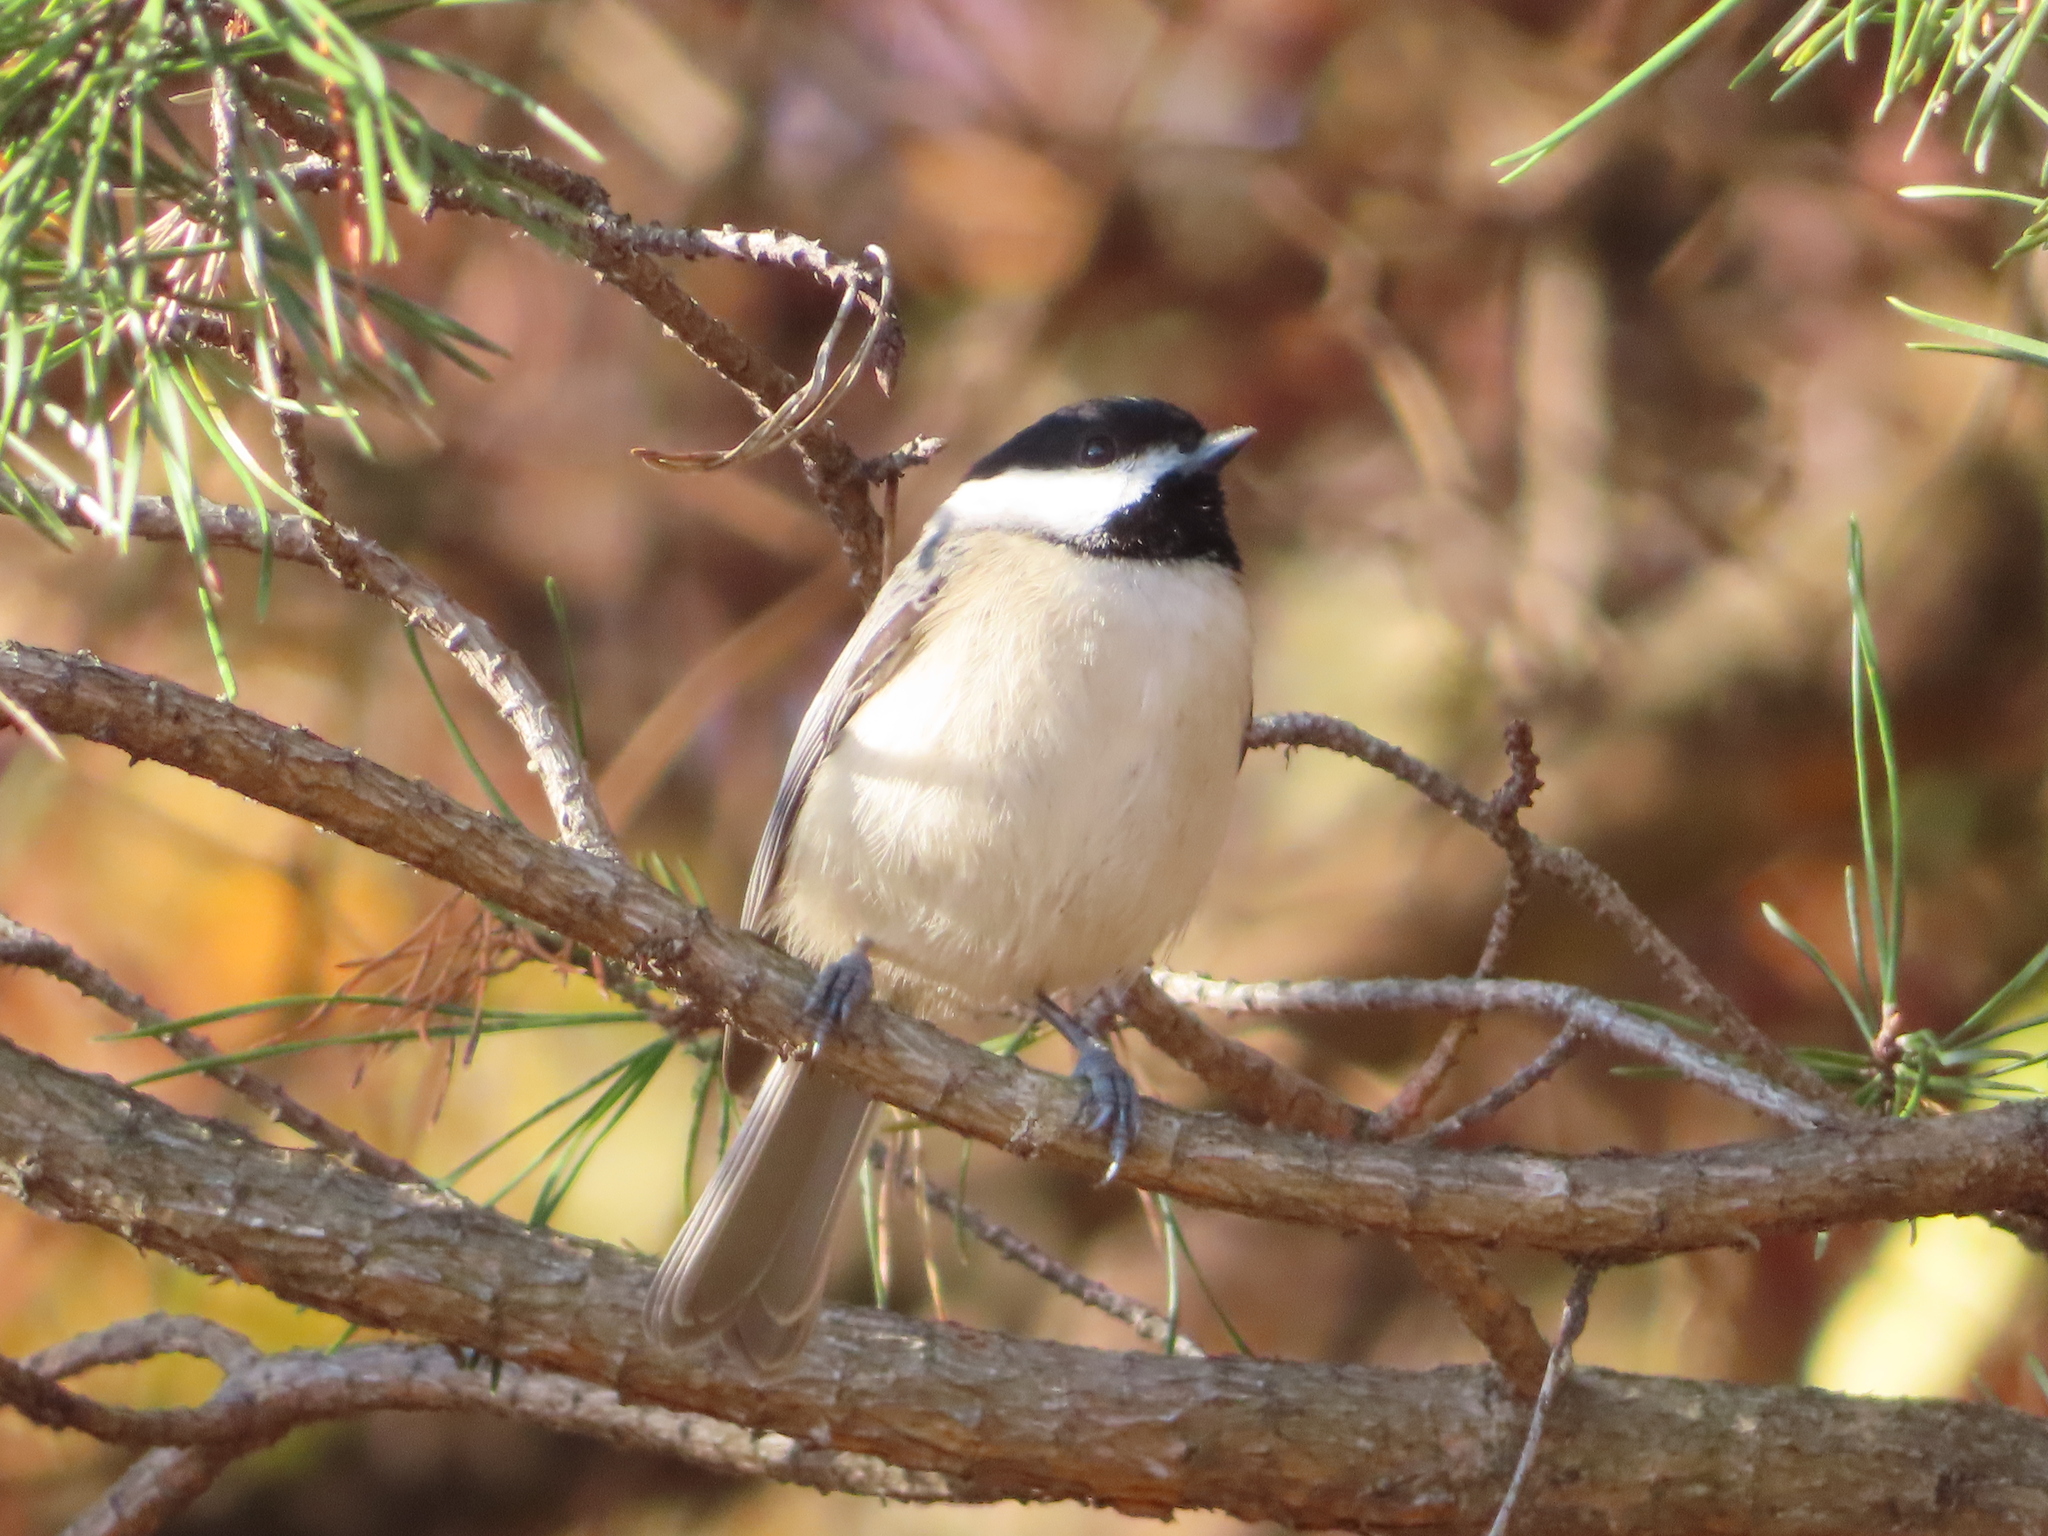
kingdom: Animalia
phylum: Chordata
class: Aves
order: Passeriformes
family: Paridae
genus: Poecile
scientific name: Poecile carolinensis
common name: Carolina chickadee
